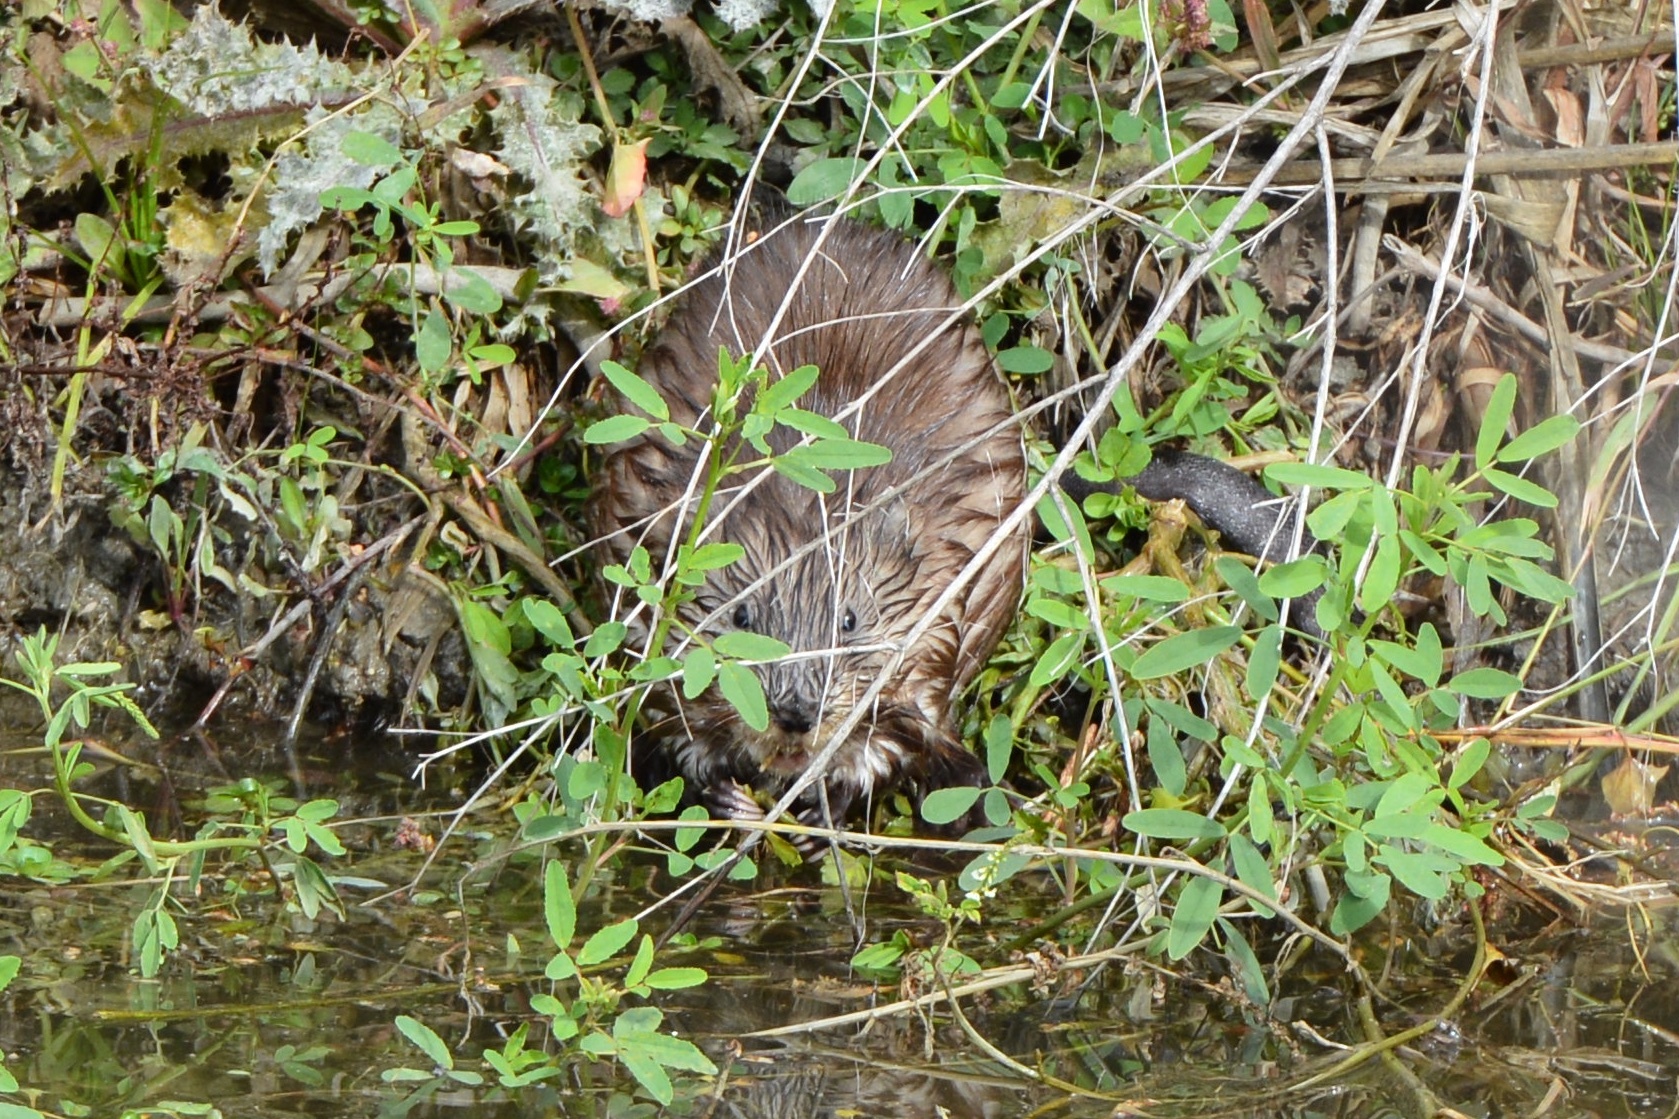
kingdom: Animalia
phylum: Chordata
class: Mammalia
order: Rodentia
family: Cricetidae
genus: Ondatra
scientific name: Ondatra zibethicus
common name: Muskrat
